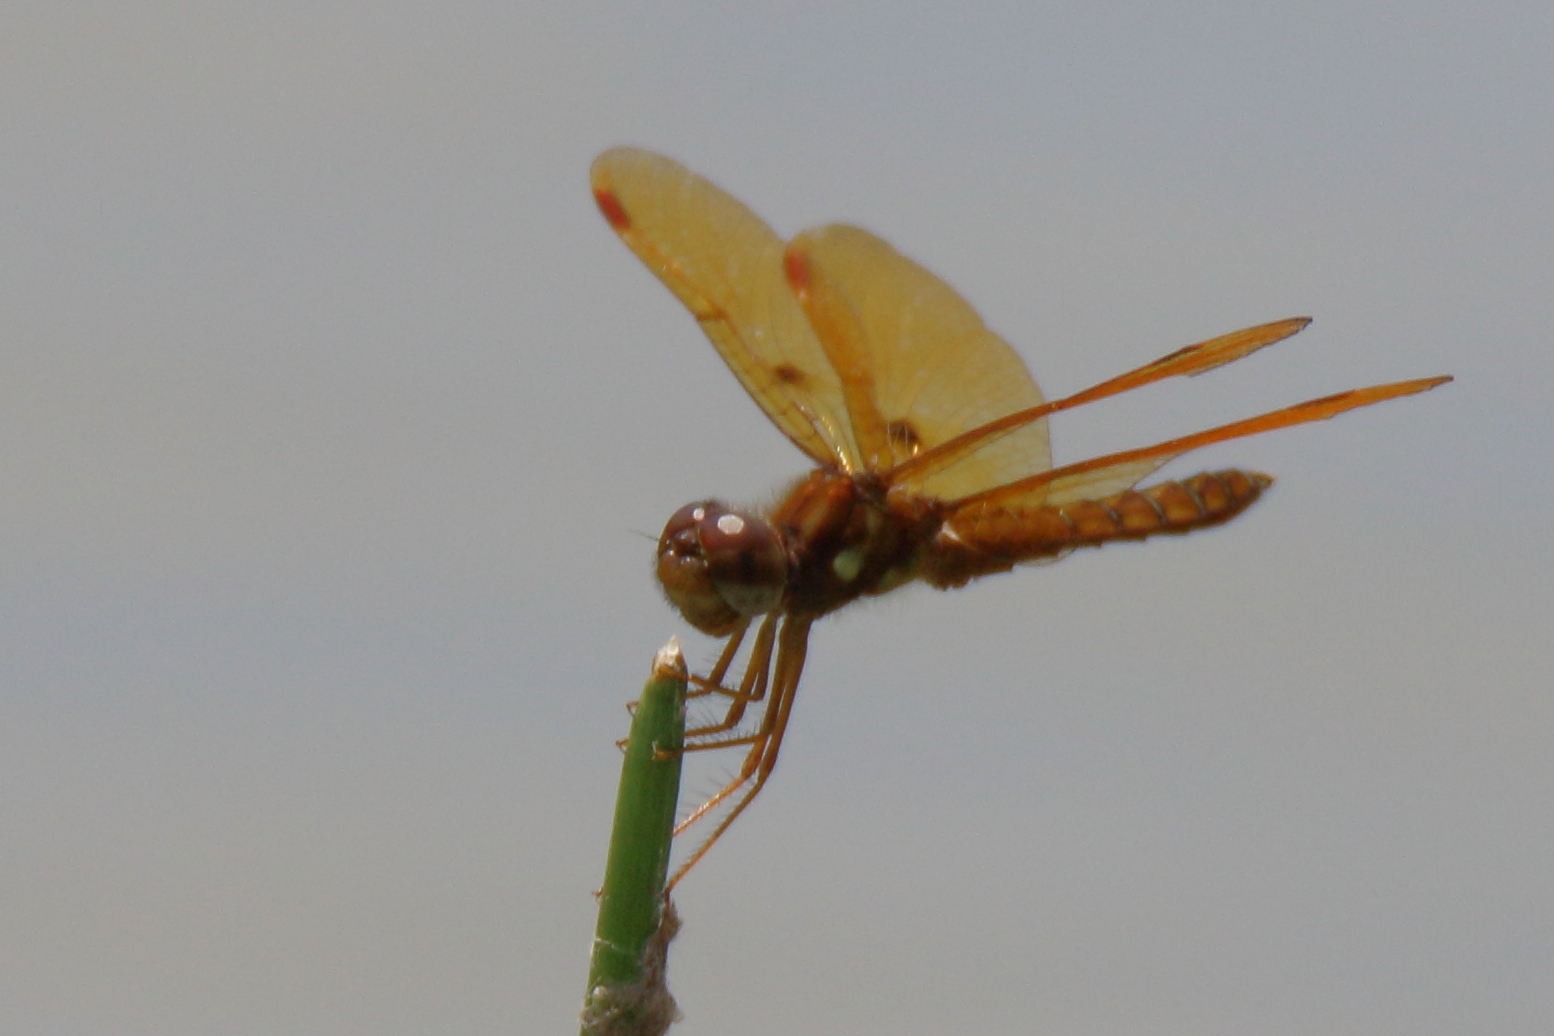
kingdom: Animalia
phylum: Arthropoda
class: Insecta
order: Odonata
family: Libellulidae
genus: Perithemis
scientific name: Perithemis tenera
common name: Eastern amberwing
